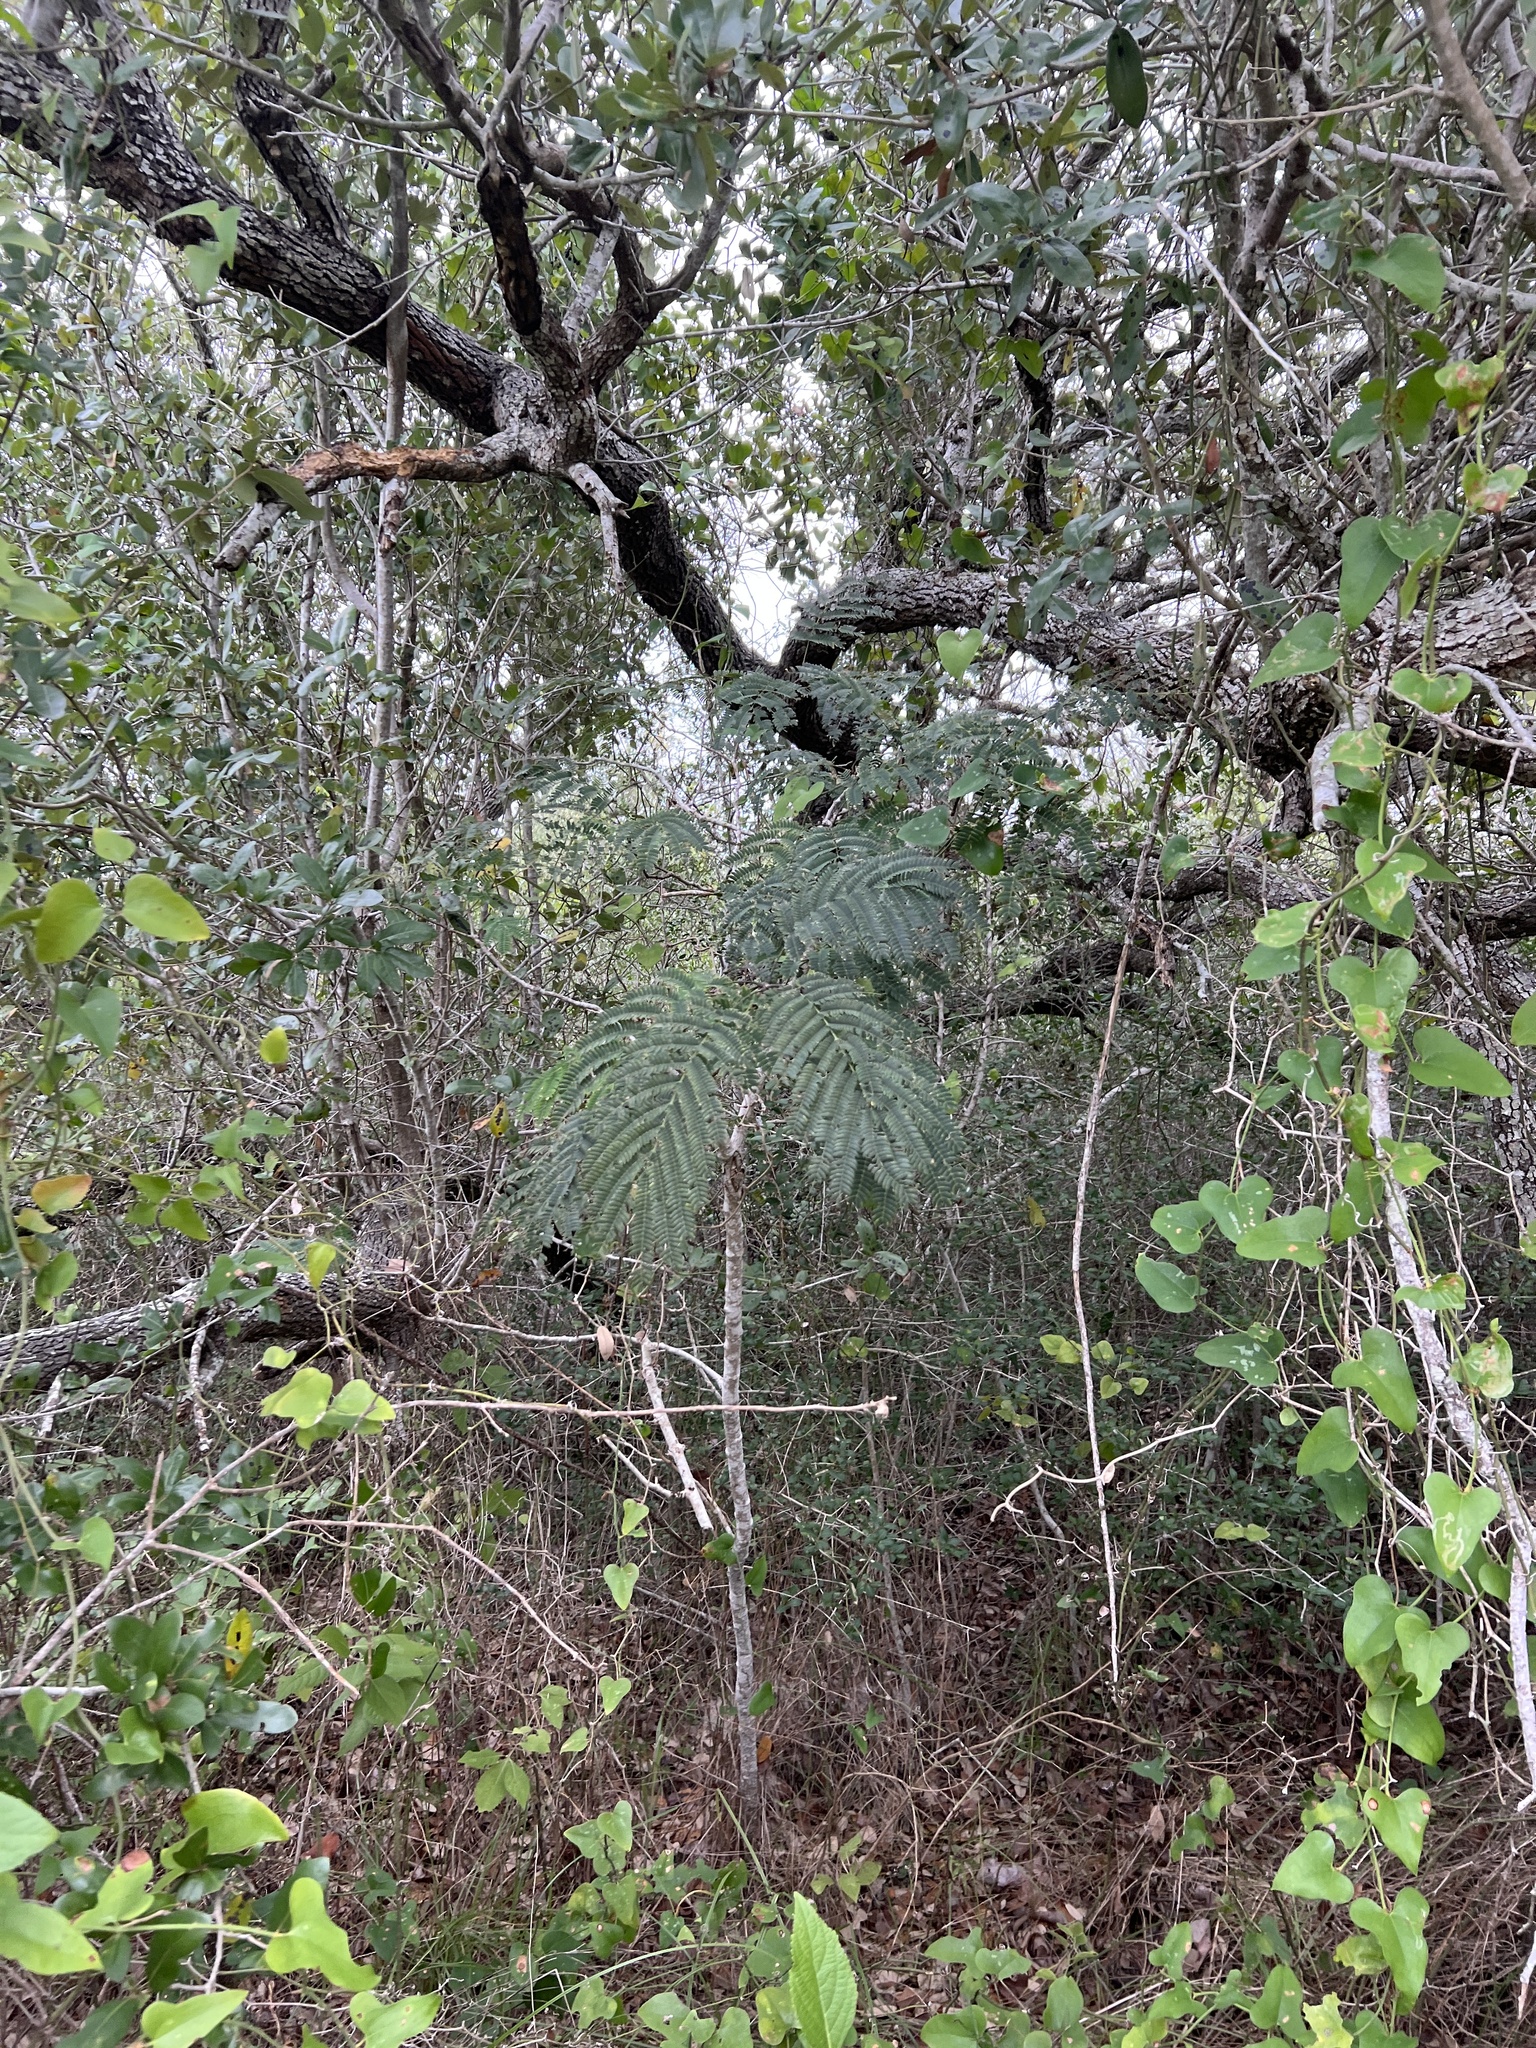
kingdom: Plantae
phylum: Tracheophyta
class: Magnoliopsida
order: Fabales
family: Fabaceae
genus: Albizia
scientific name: Albizia julibrissin
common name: Silktree
